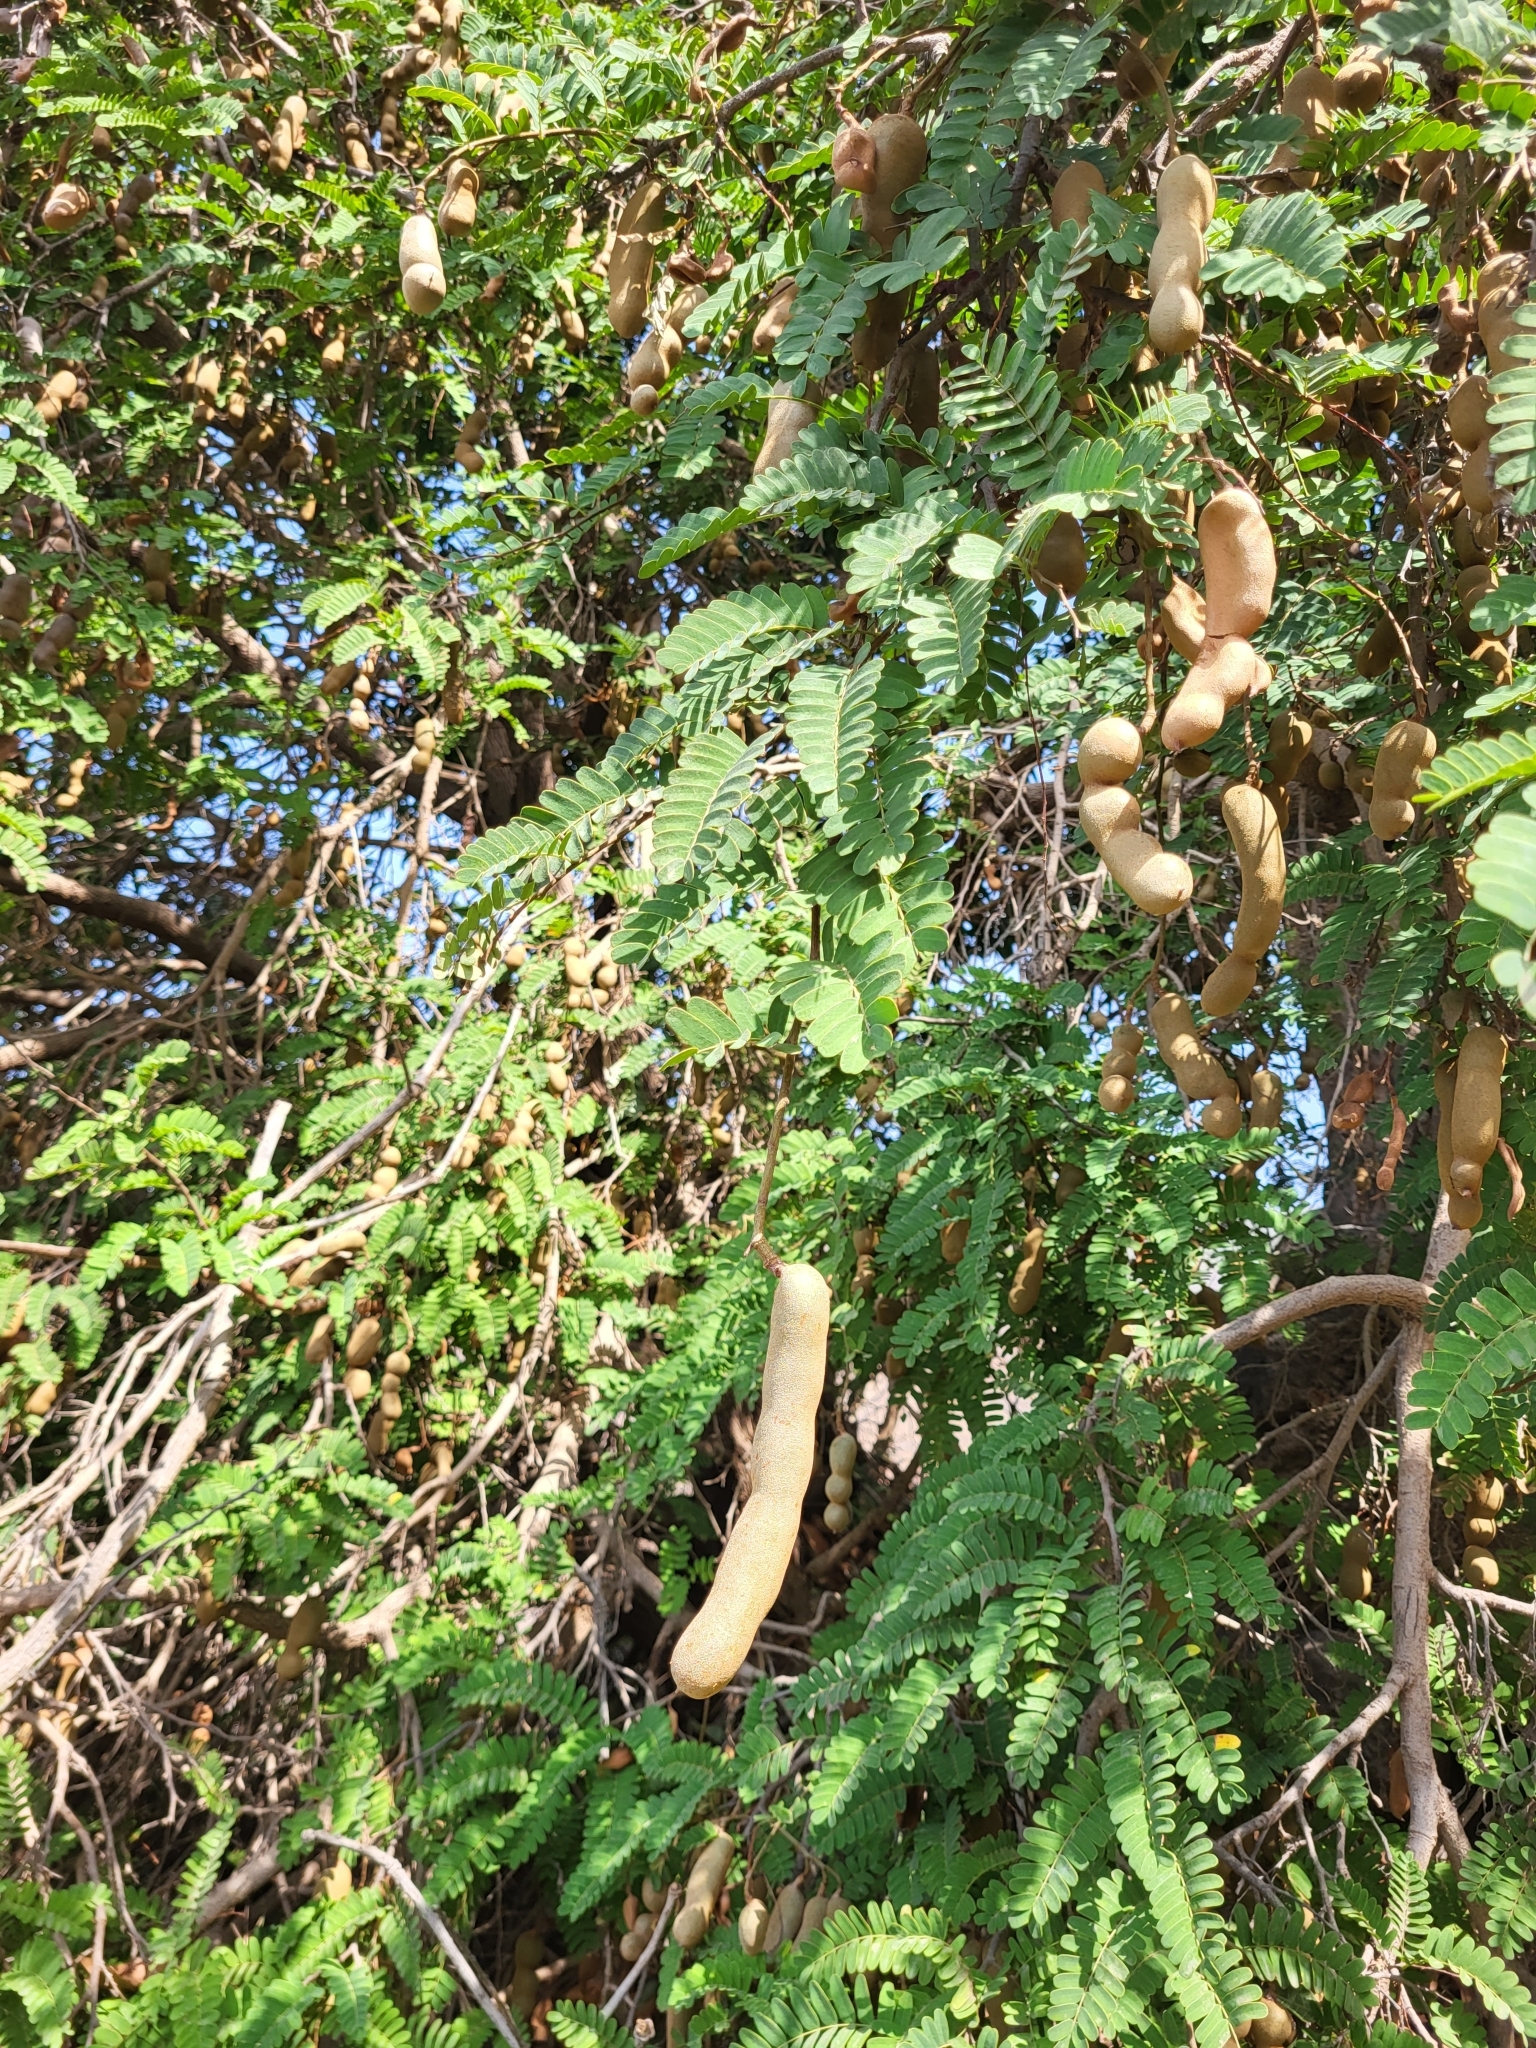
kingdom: Plantae
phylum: Tracheophyta
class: Magnoliopsida
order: Fabales
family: Fabaceae
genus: Tamarindus
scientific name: Tamarindus indica
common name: Tamarind
